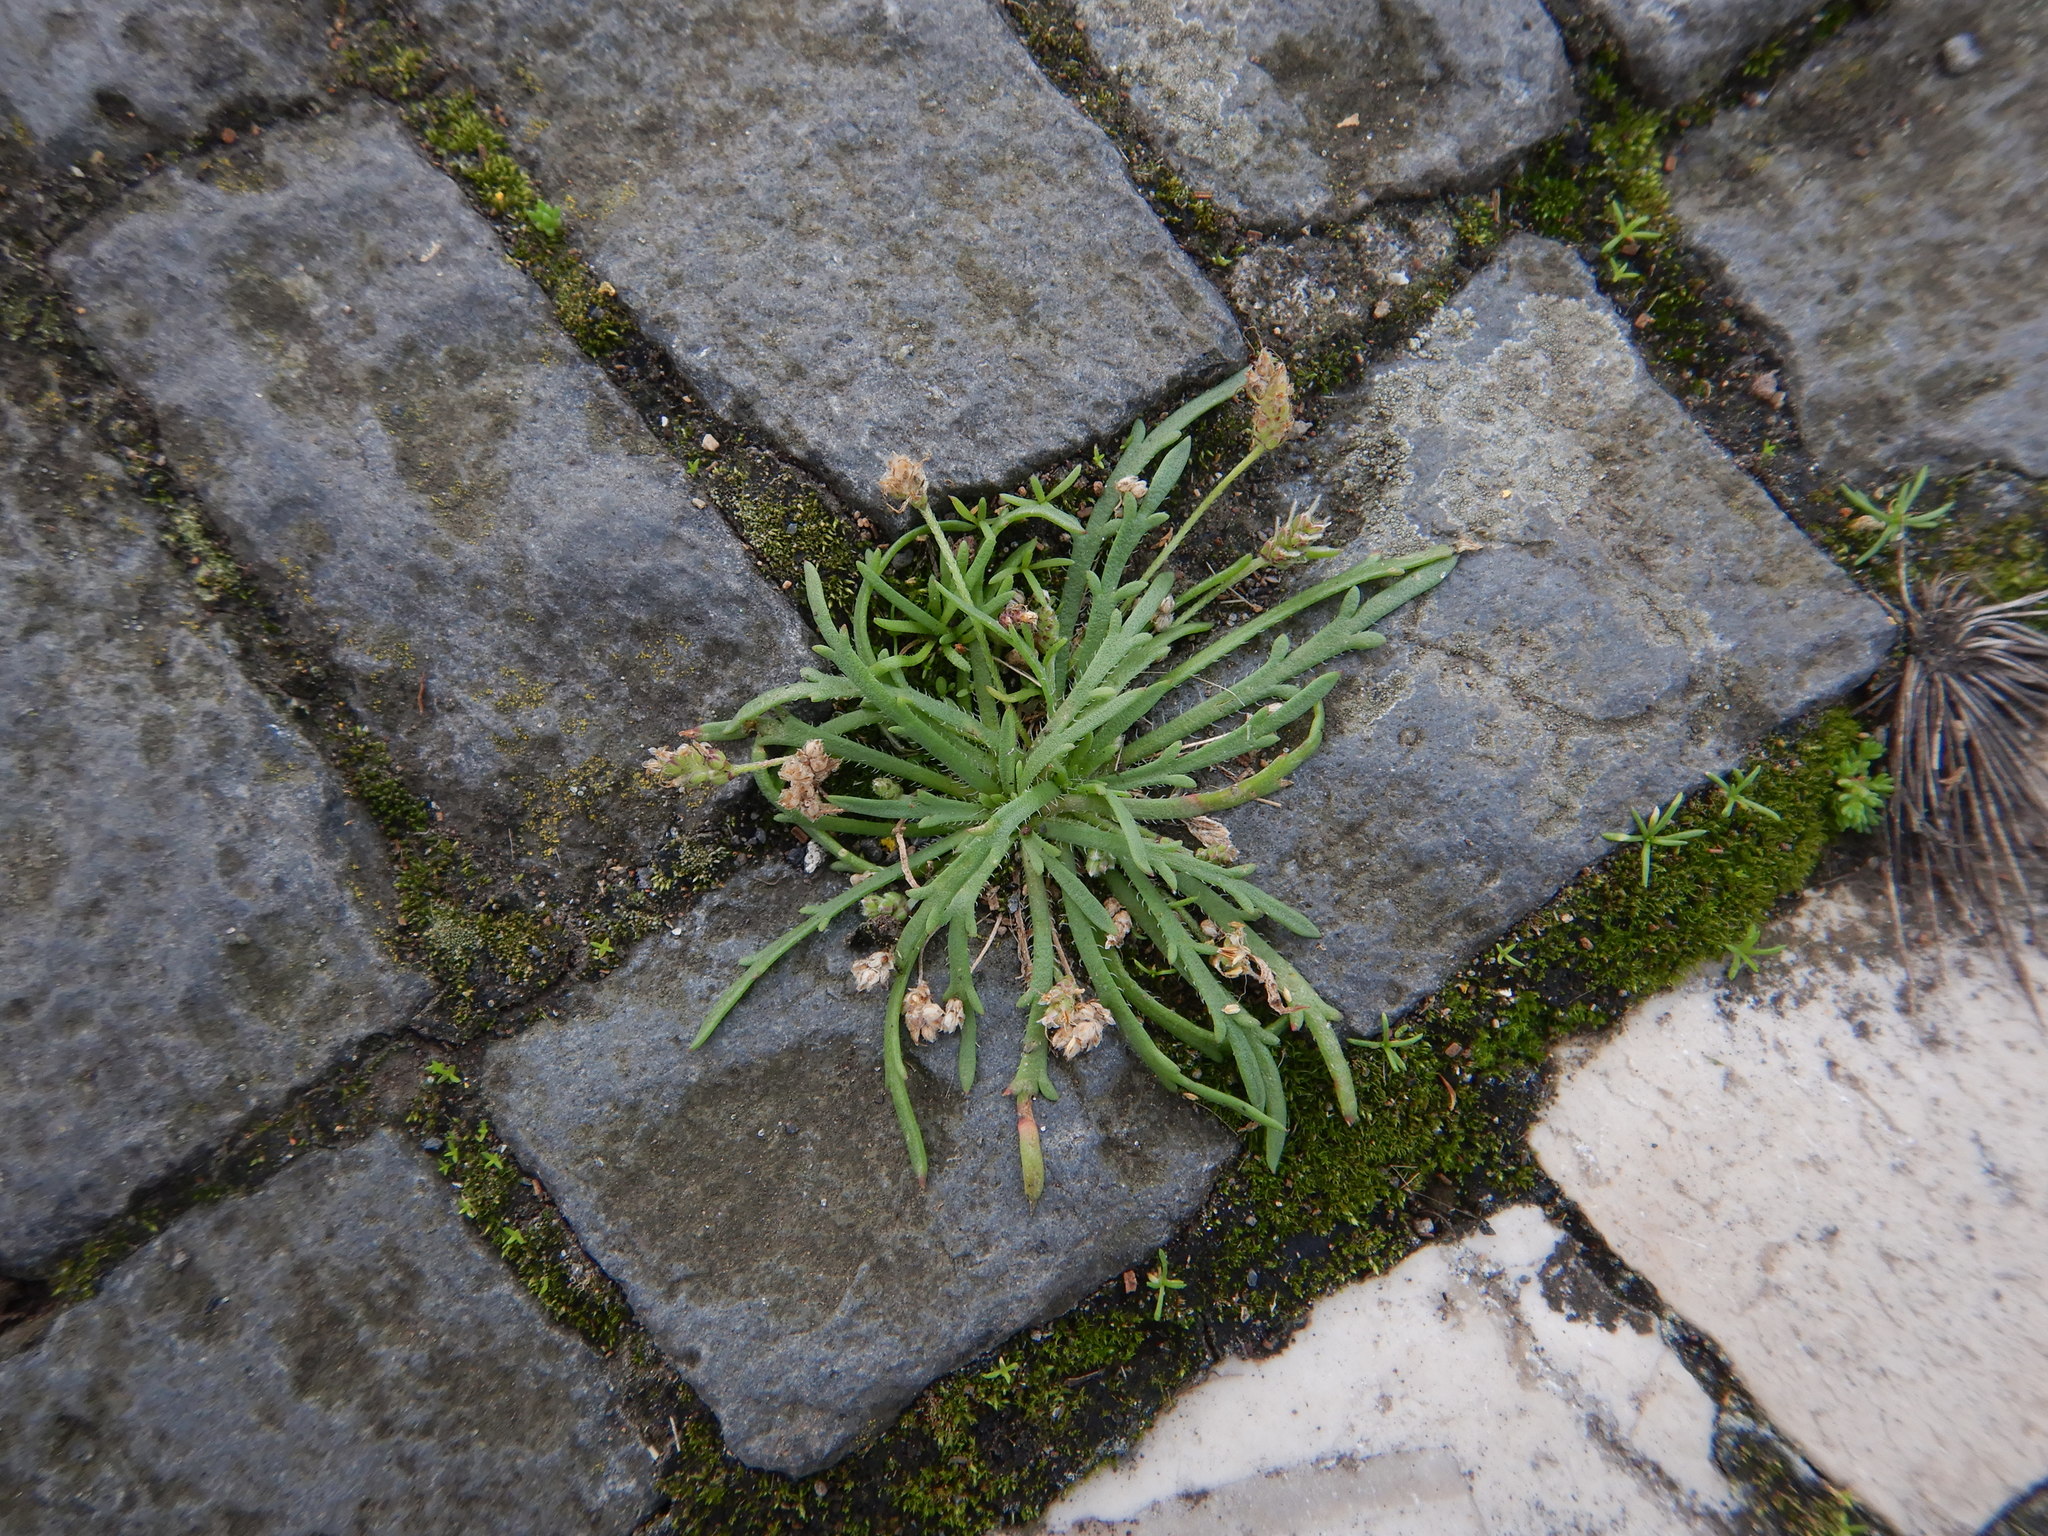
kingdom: Plantae
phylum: Tracheophyta
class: Magnoliopsida
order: Lamiales
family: Plantaginaceae
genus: Plantago
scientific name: Plantago coronopus
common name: Buck's-horn plantain
